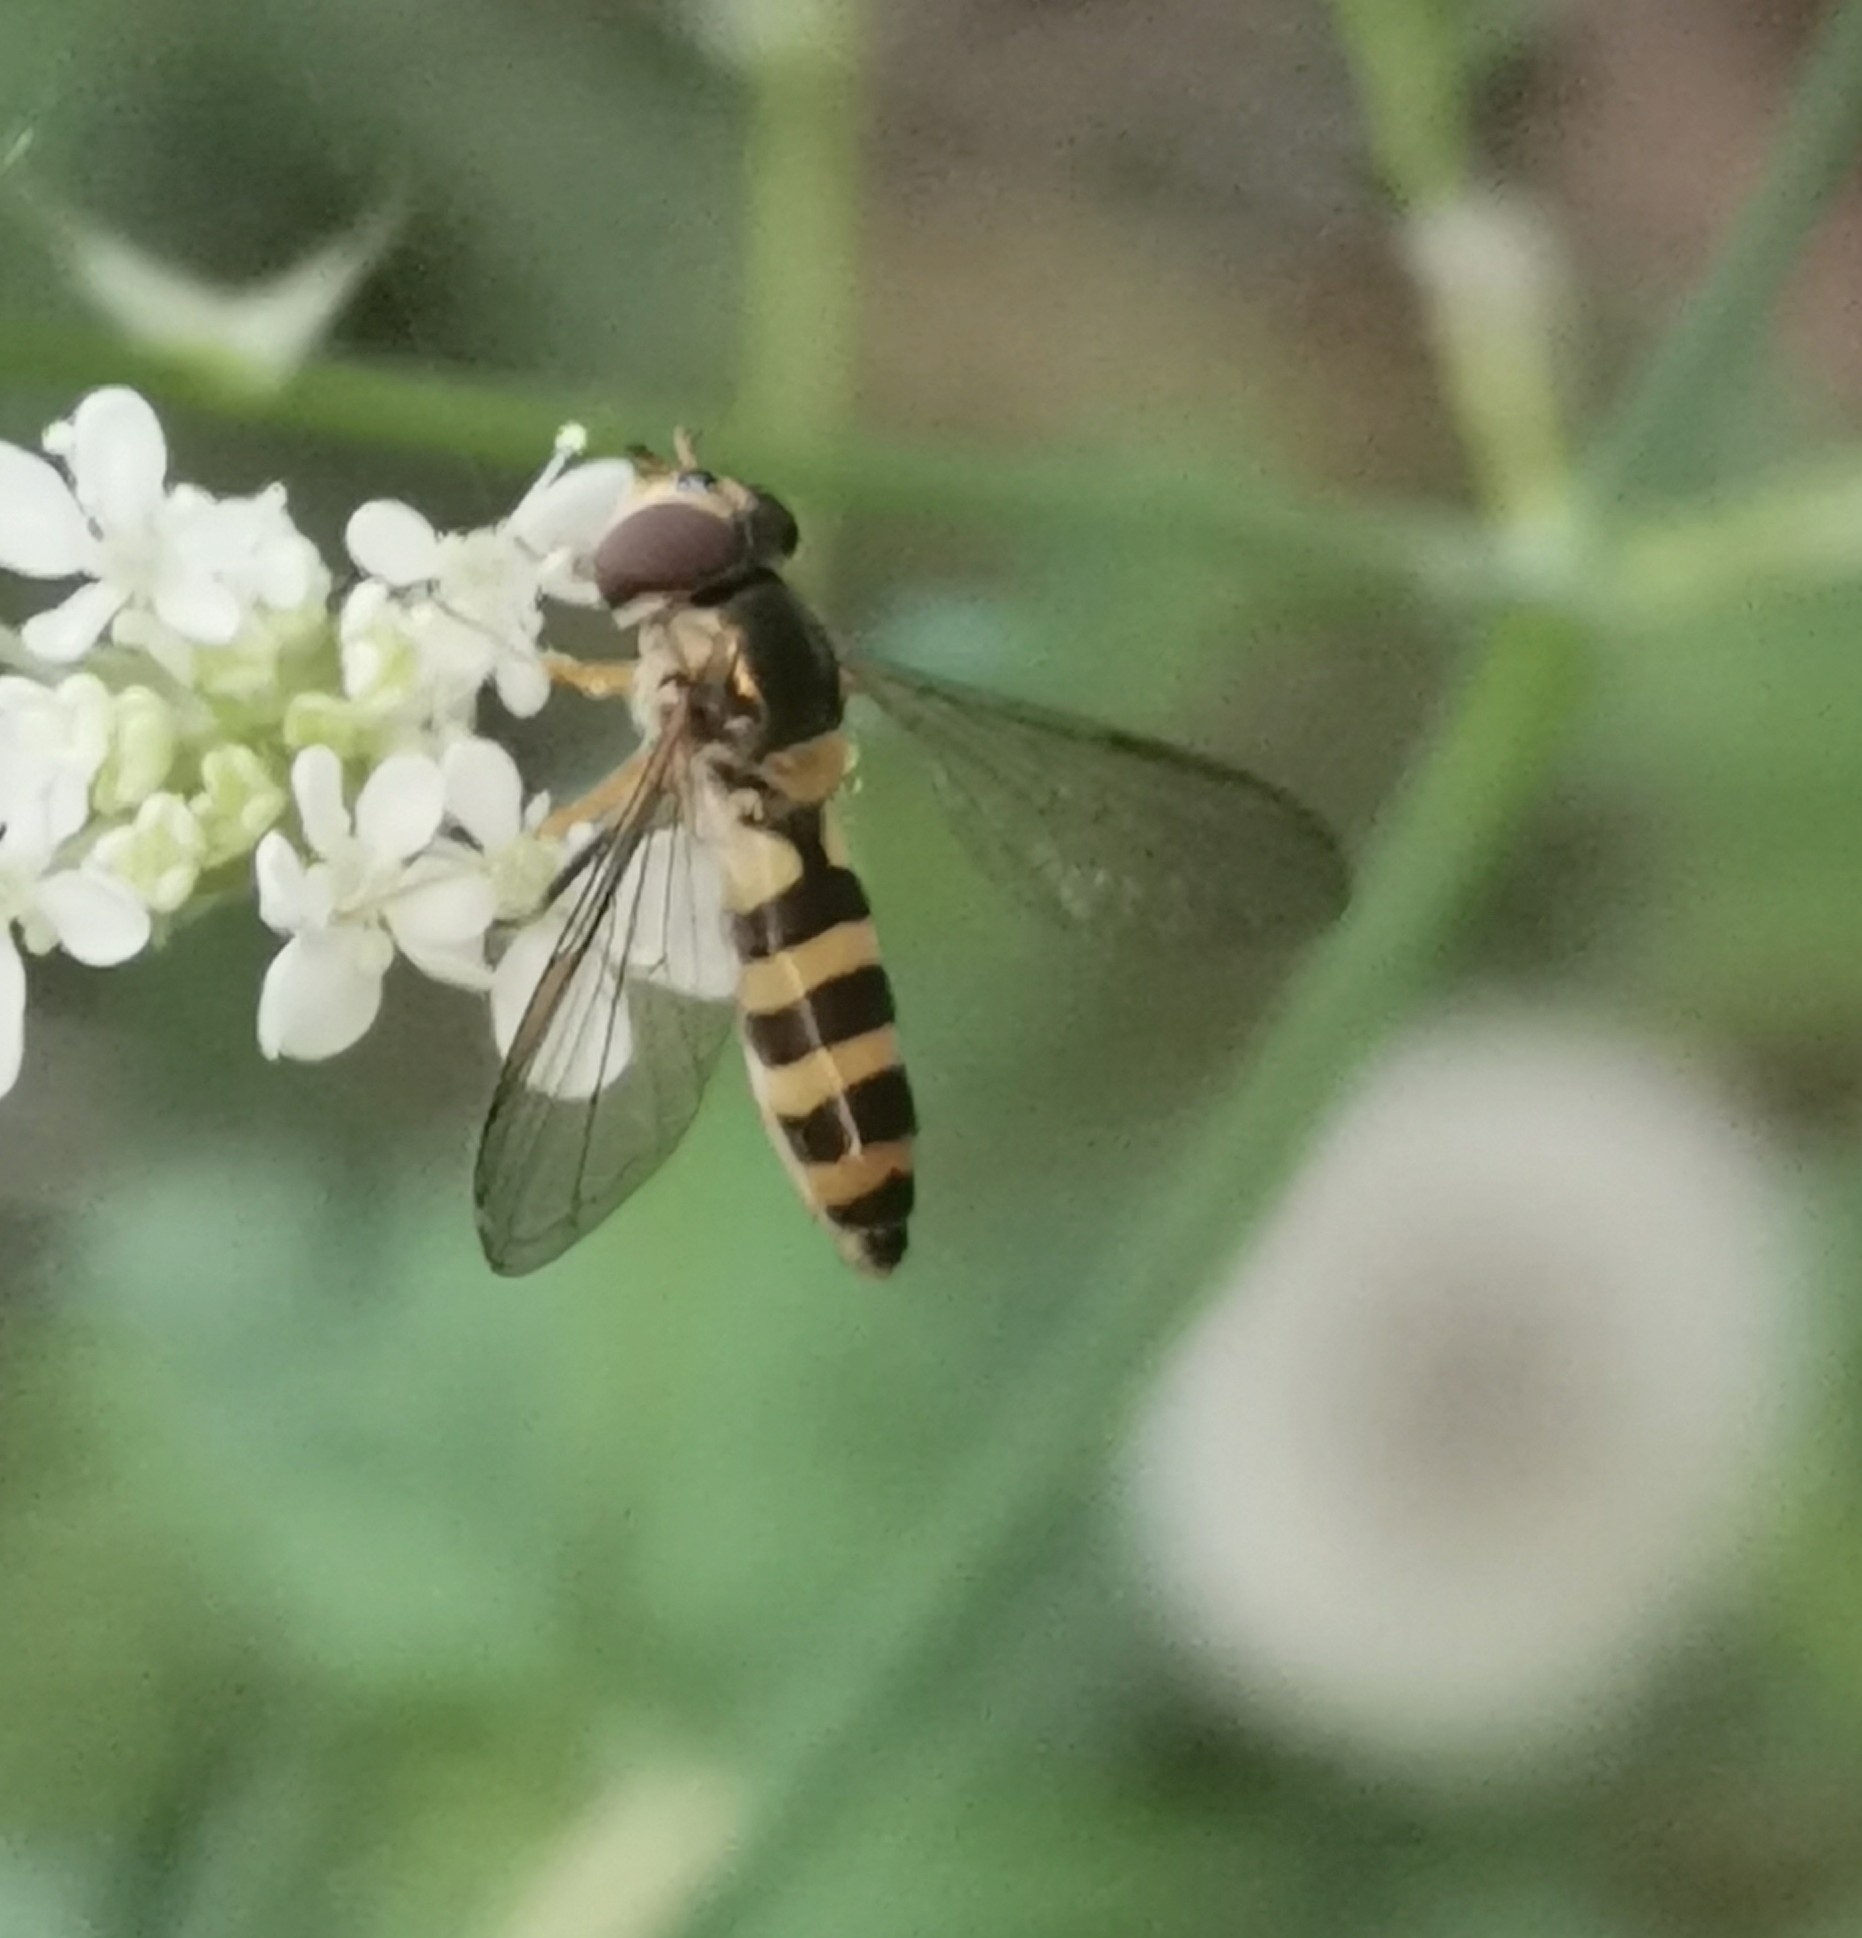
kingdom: Animalia
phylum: Arthropoda
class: Insecta
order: Diptera
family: Syrphidae
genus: Meliscaeva
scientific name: Meliscaeva cinctella
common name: American thintail fly
